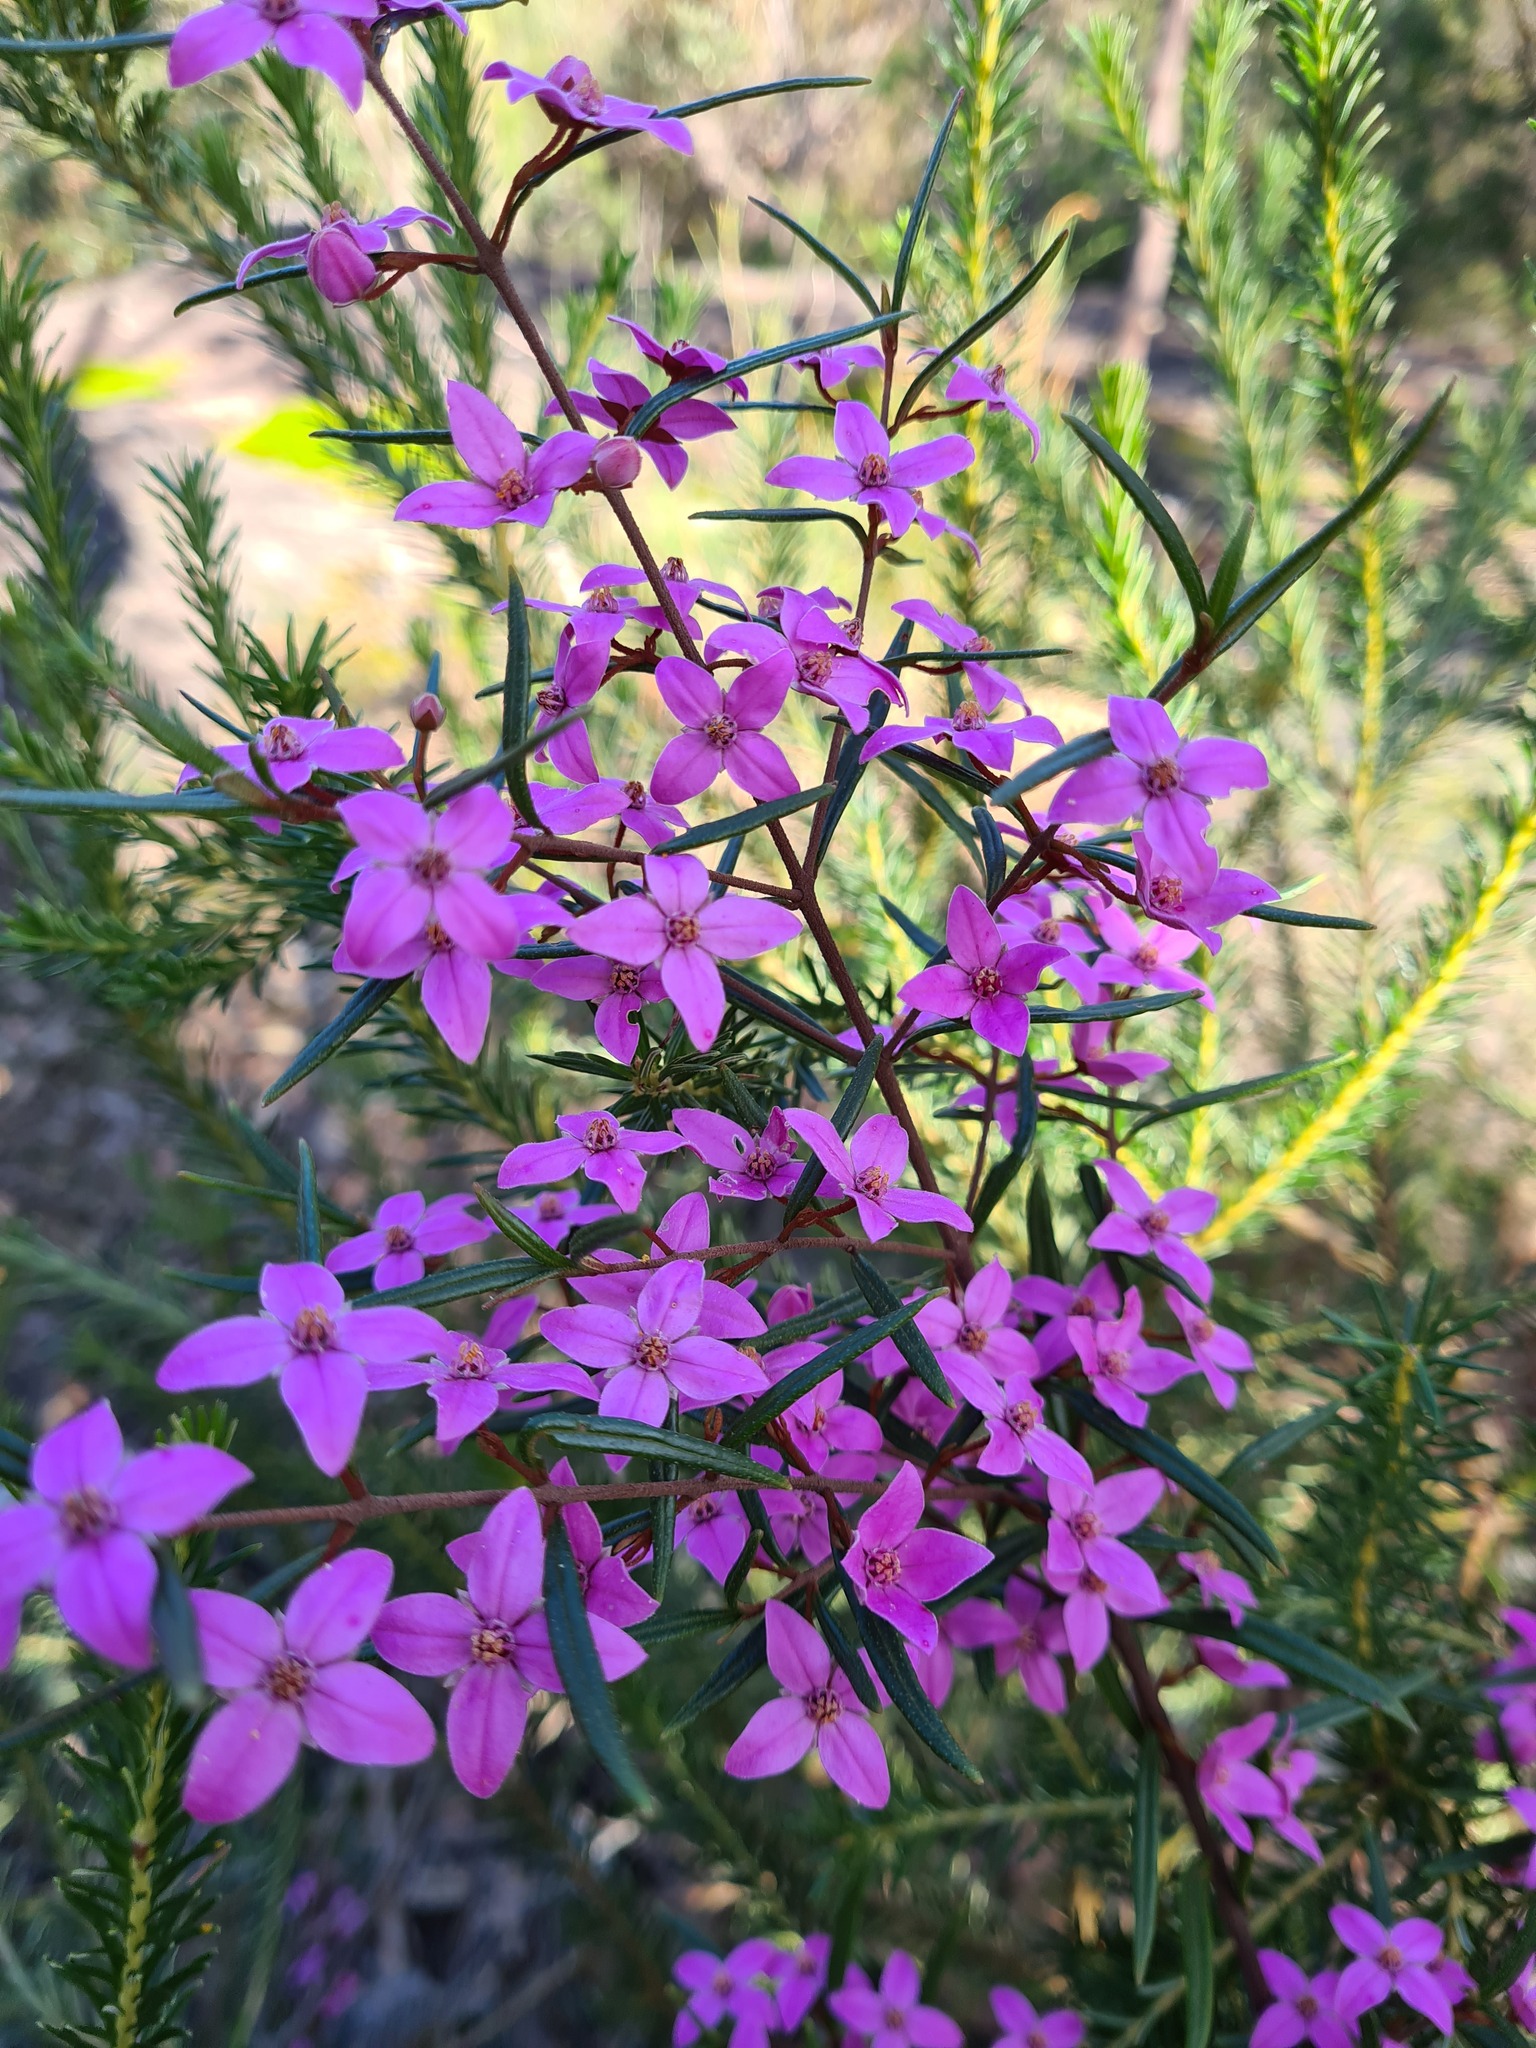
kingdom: Plantae
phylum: Tracheophyta
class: Magnoliopsida
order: Sapindales
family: Rutaceae
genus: Boronia
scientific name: Boronia ledifolia
